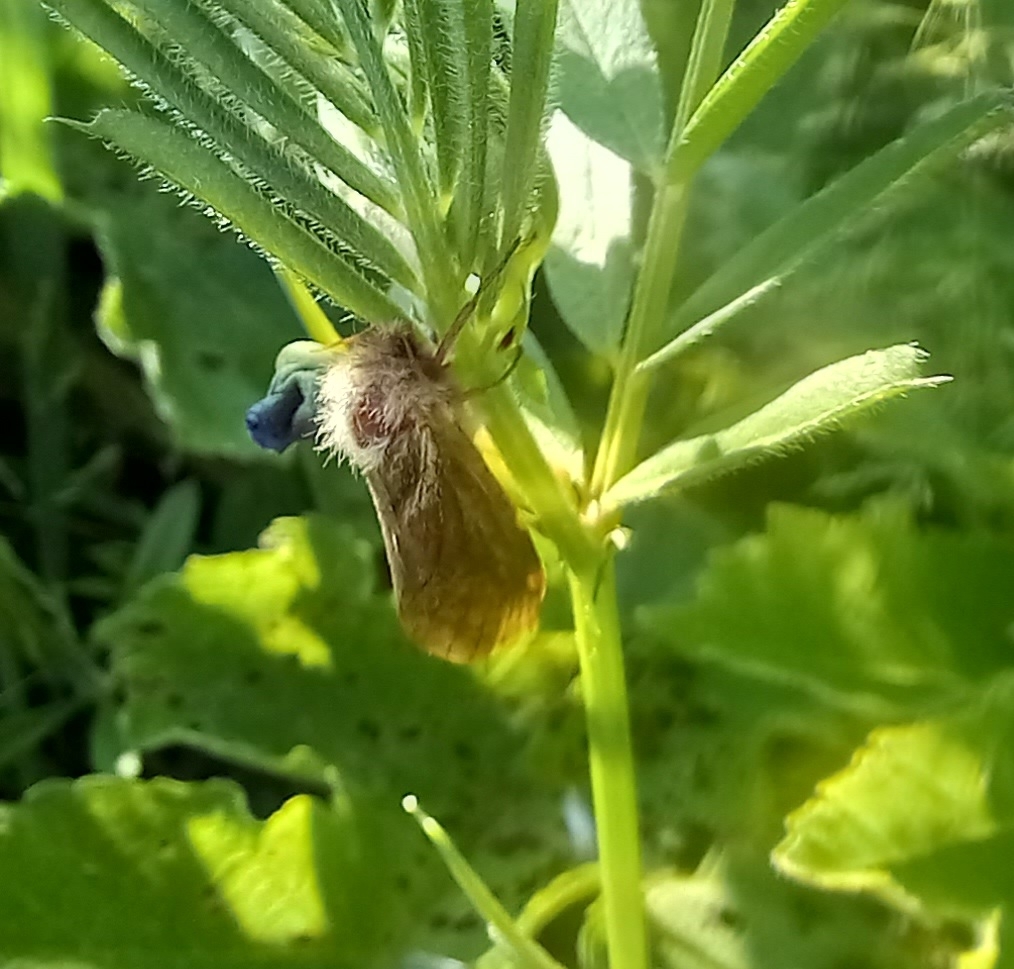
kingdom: Animalia
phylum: Arthropoda
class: Insecta
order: Lepidoptera
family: Hepialidae
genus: Korscheltellus
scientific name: Korscheltellus lupulina
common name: Common swift
